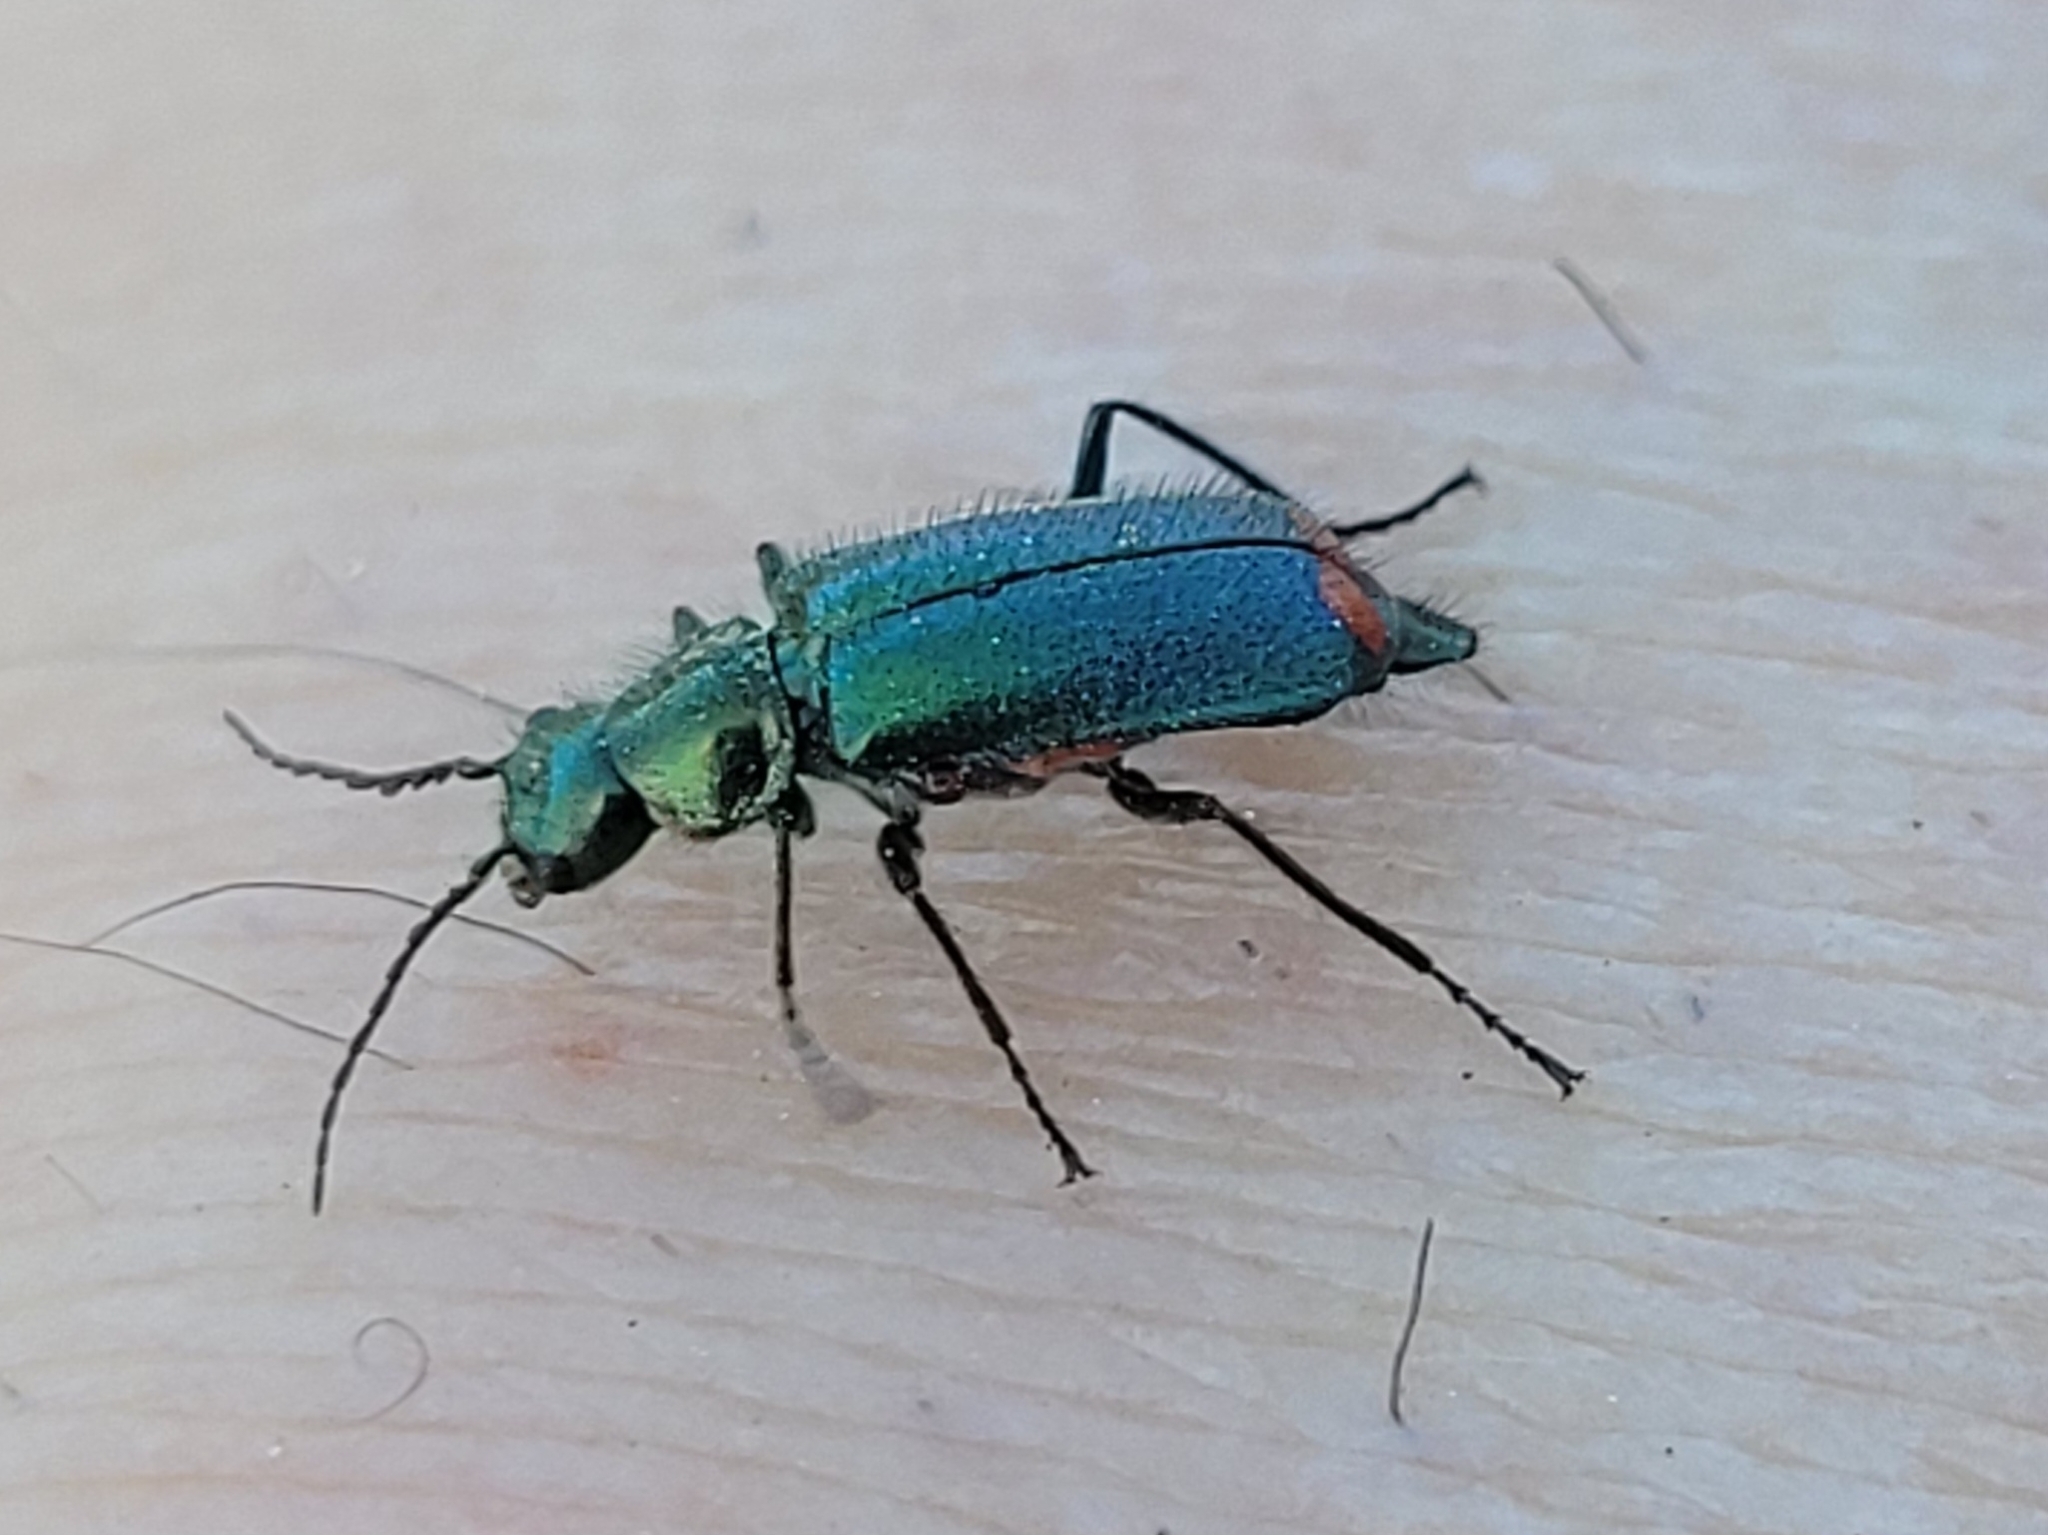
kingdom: Animalia
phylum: Arthropoda
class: Insecta
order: Coleoptera
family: Melyridae
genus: Malachius
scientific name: Malachius bipustulatus
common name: Malachite beetle
